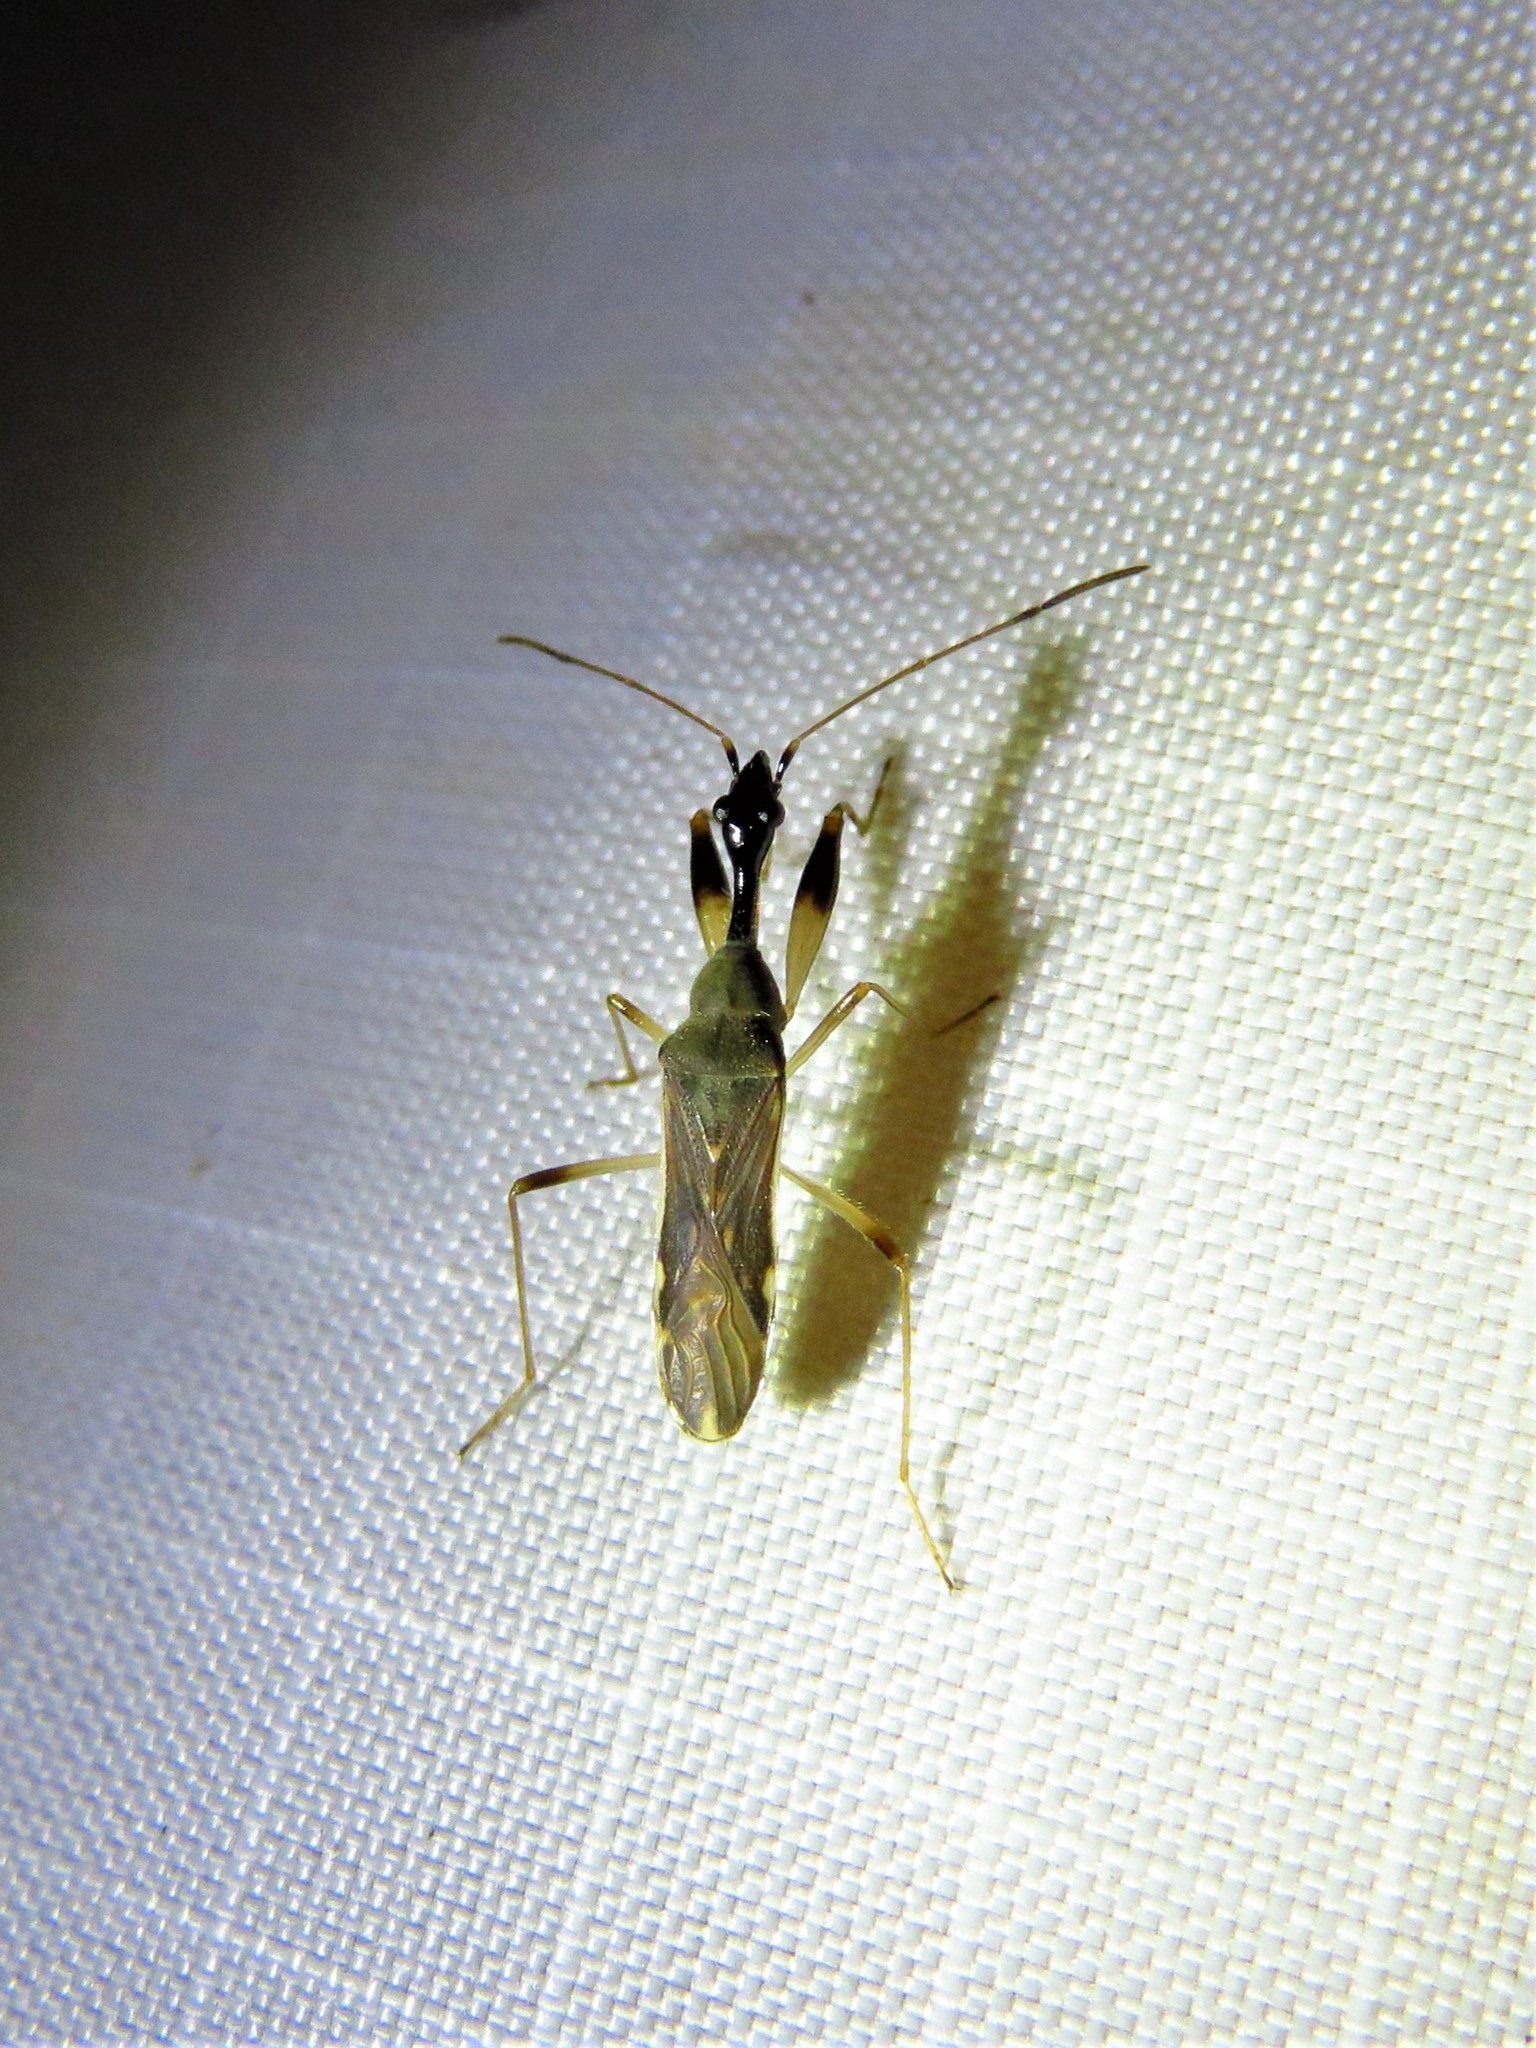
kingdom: Animalia
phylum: Arthropoda
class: Insecta
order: Hemiptera
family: Rhyparochromidae
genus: Myodocha
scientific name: Myodocha serripes
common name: Long-necked seed bug
